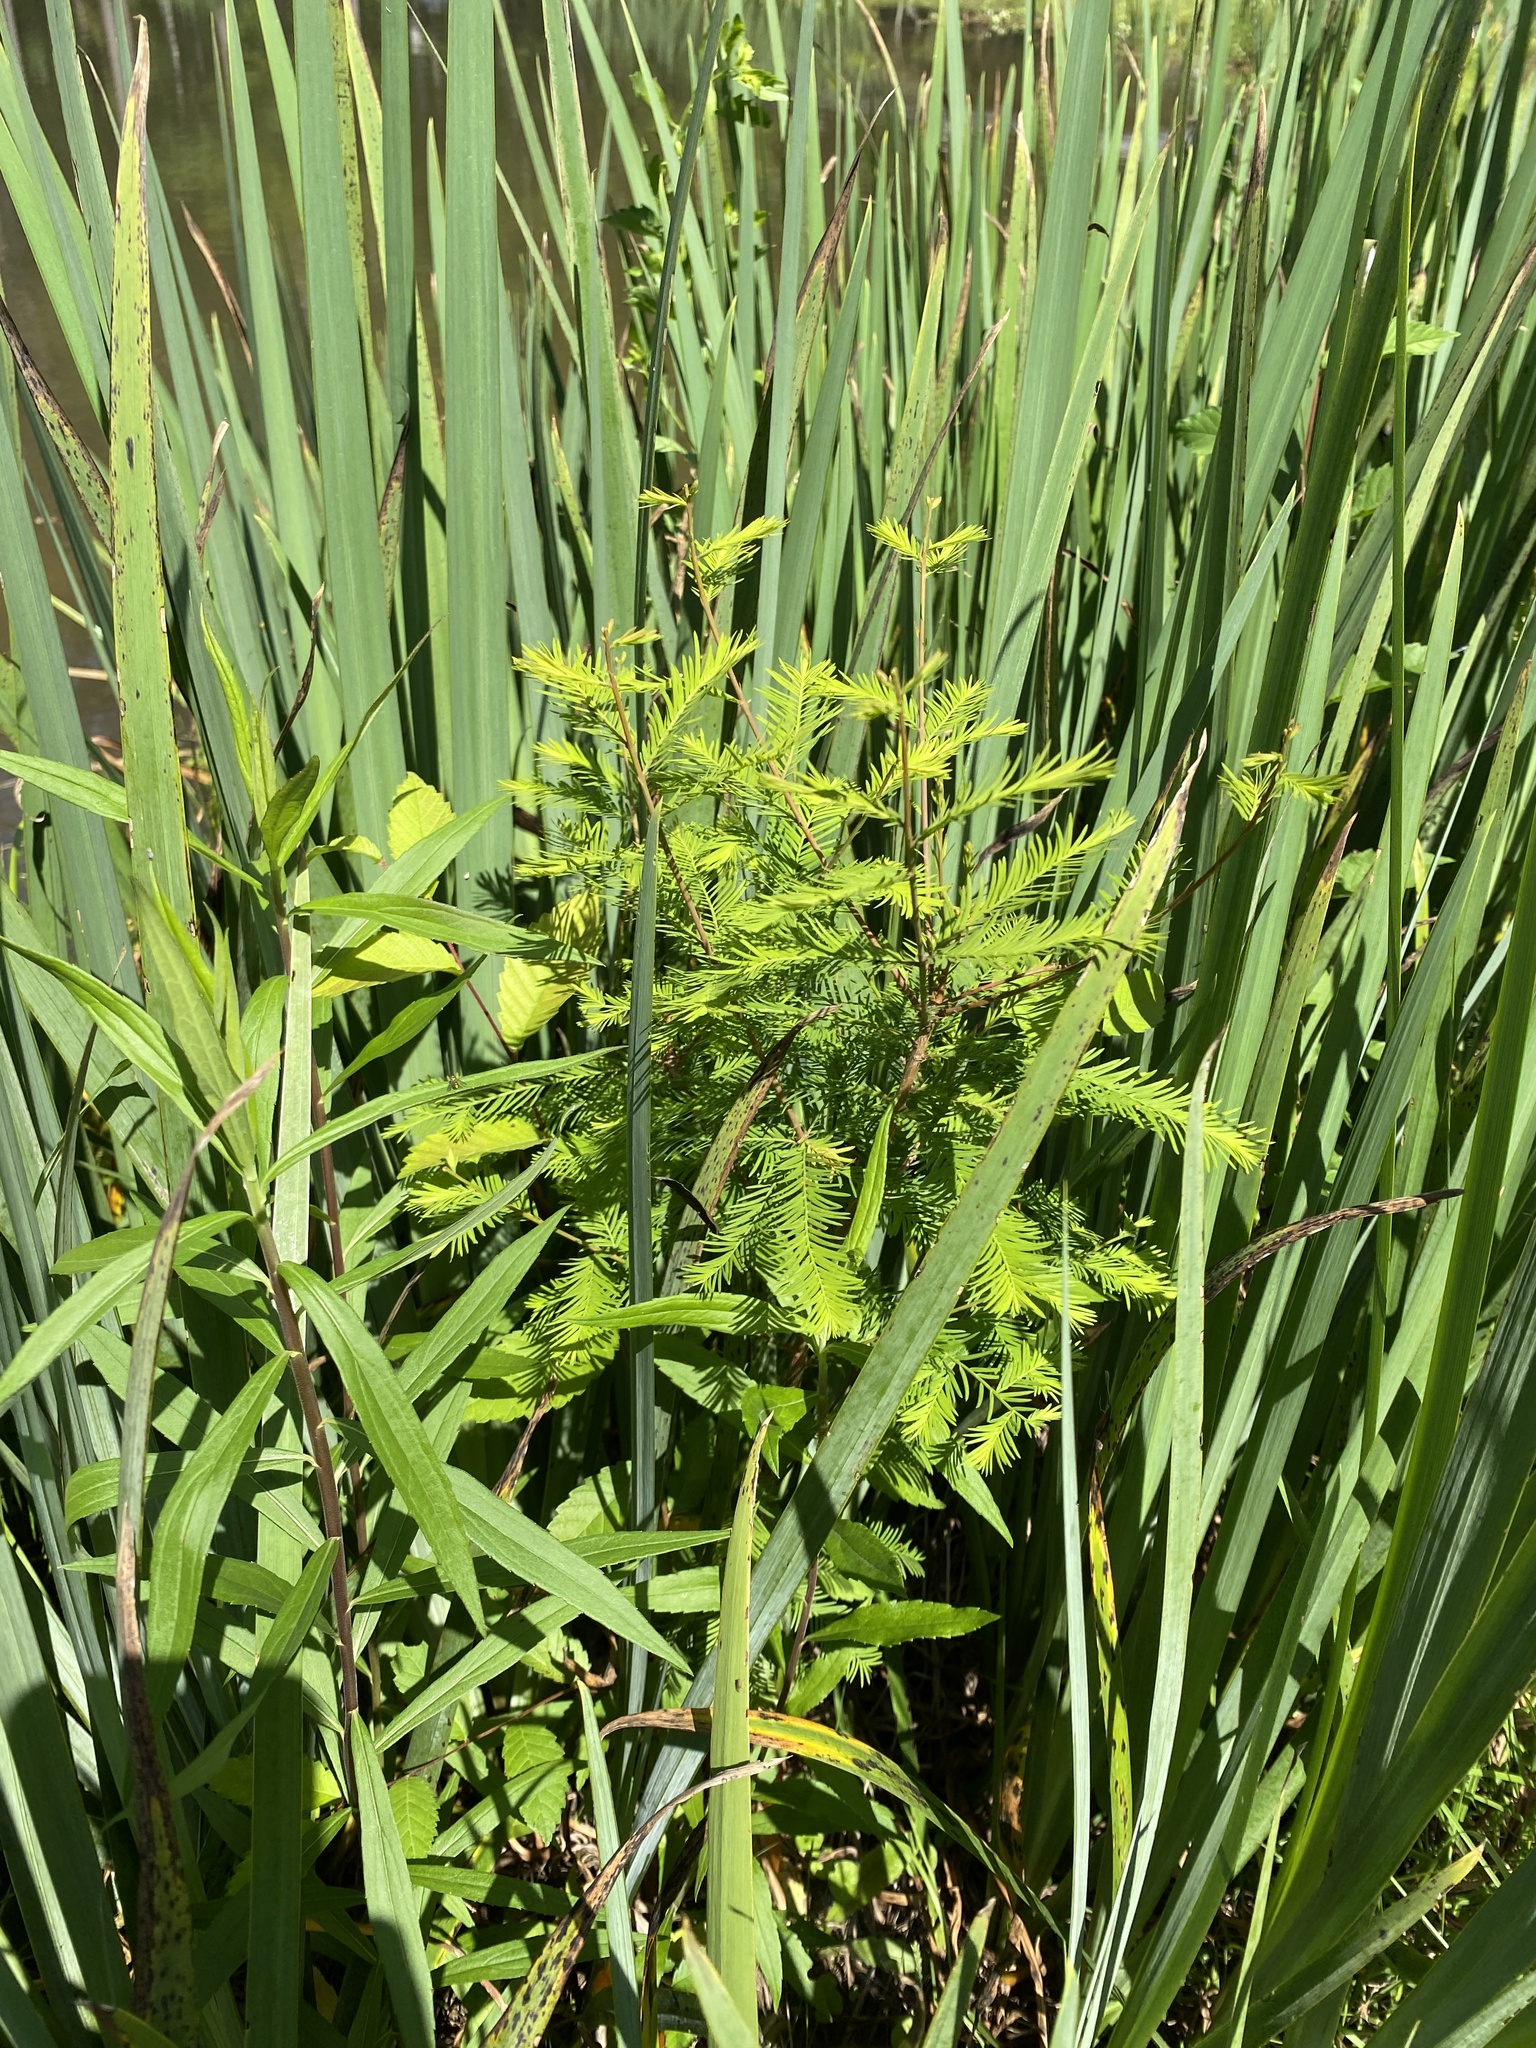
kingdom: Plantae
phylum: Tracheophyta
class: Pinopsida
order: Pinales
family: Cupressaceae
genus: Taxodium
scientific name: Taxodium distichum
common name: Bald cypress
